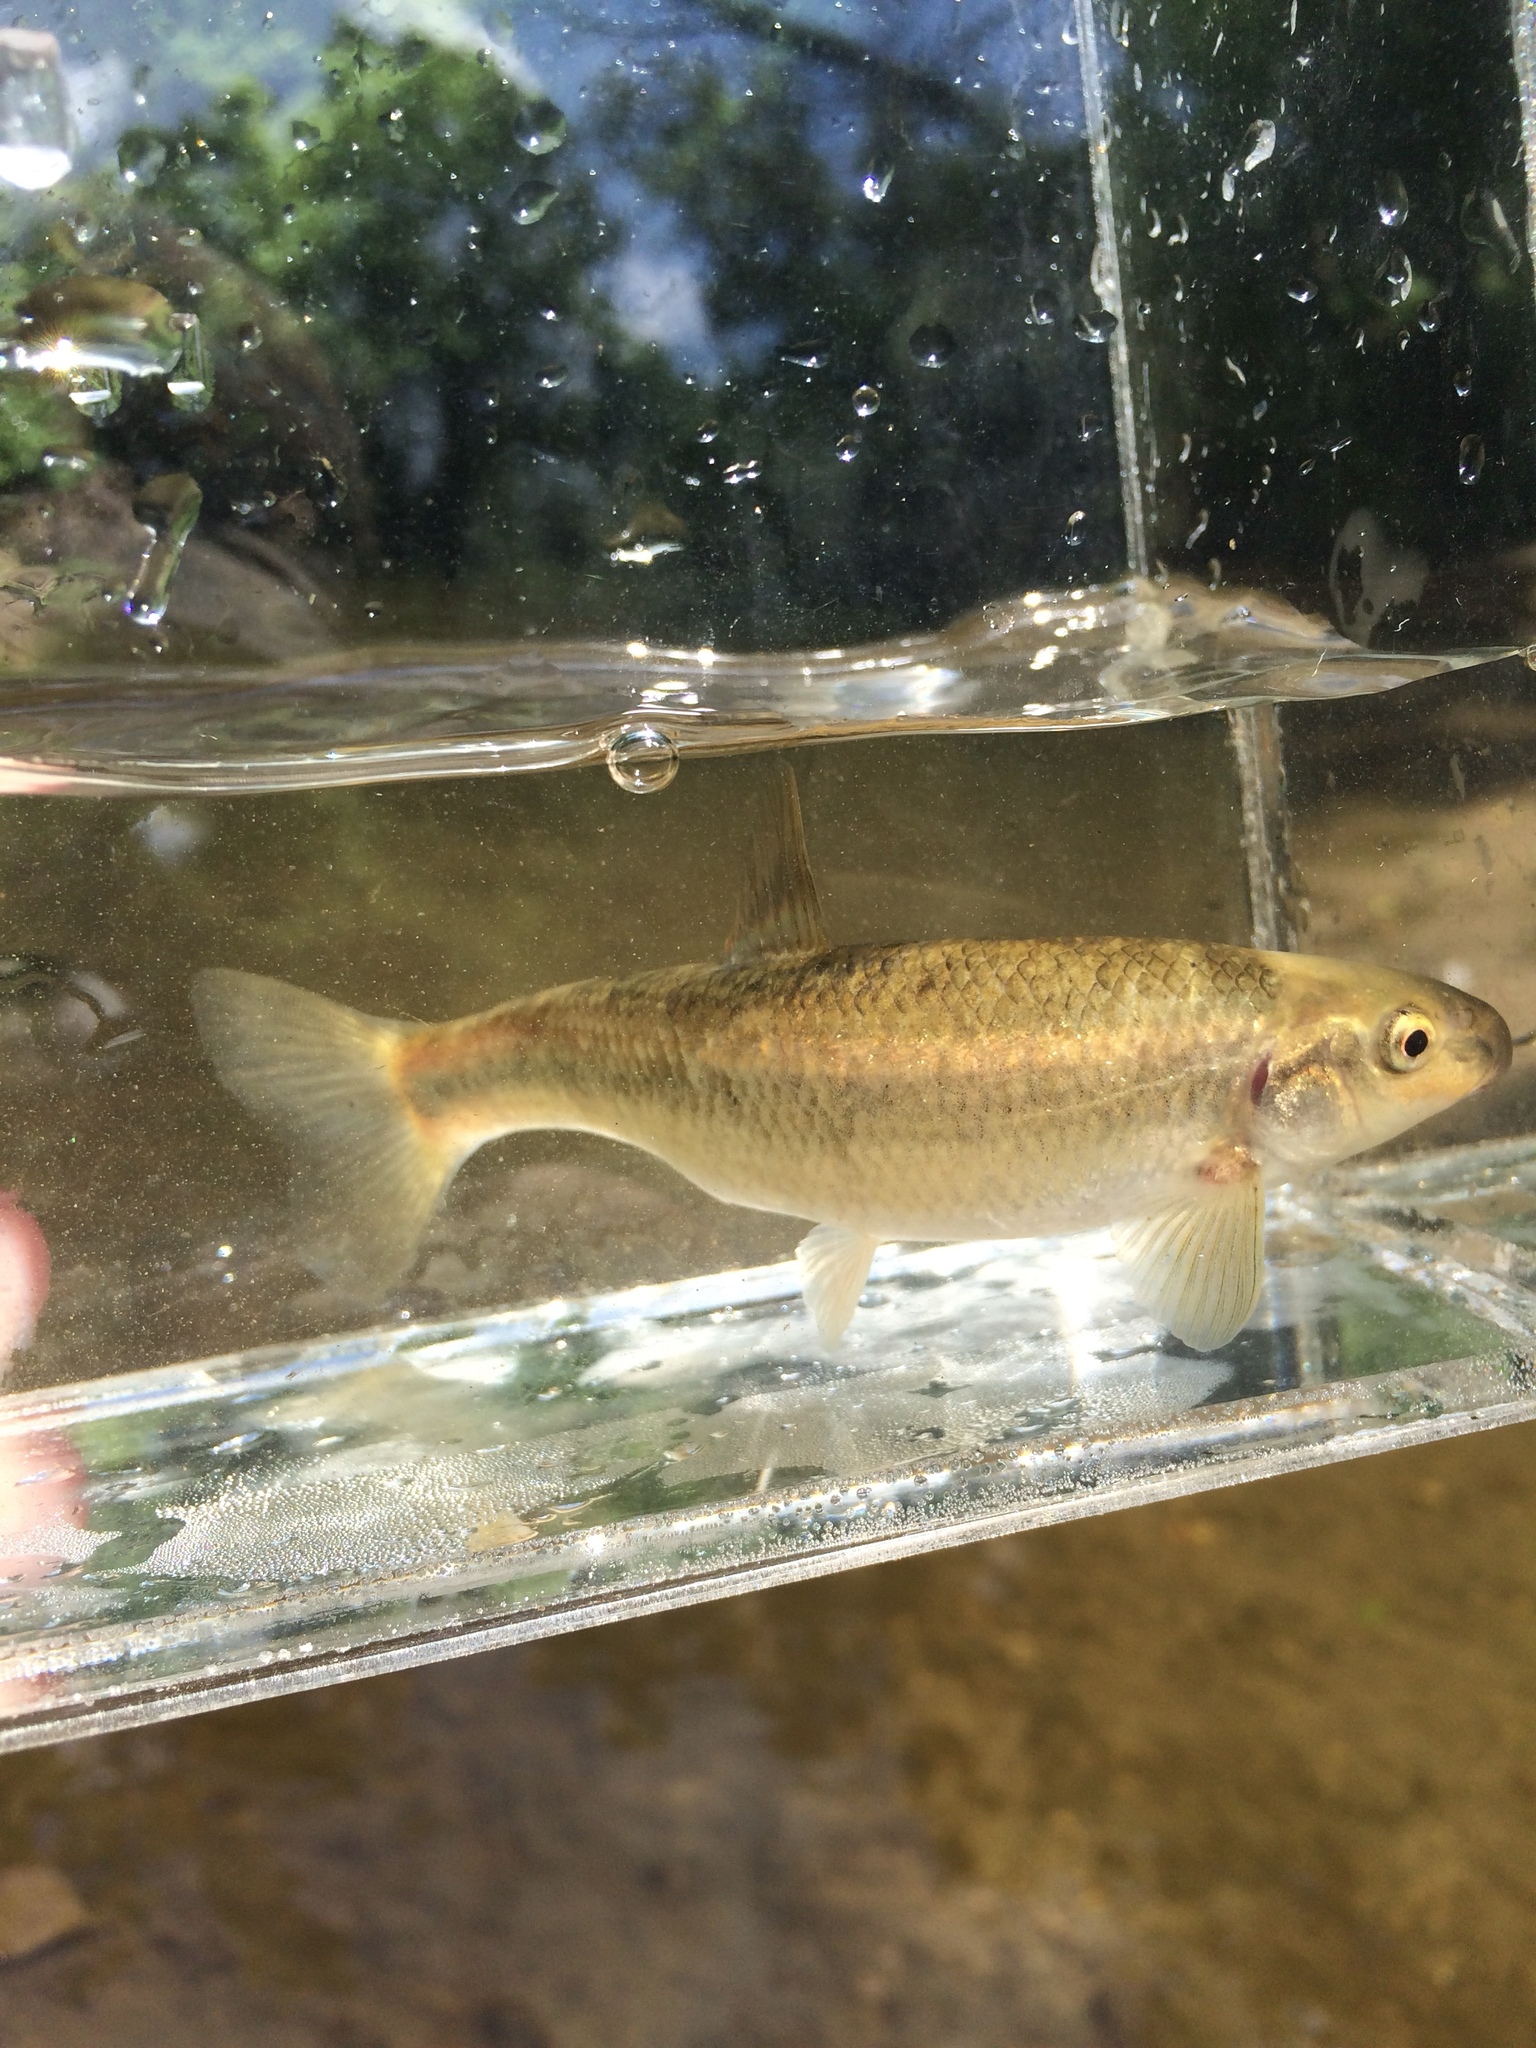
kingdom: Animalia
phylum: Chordata
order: Cypriniformes
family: Cyprinidae
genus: Campostoma
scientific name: Campostoma anomalum
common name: Central stoneroller
